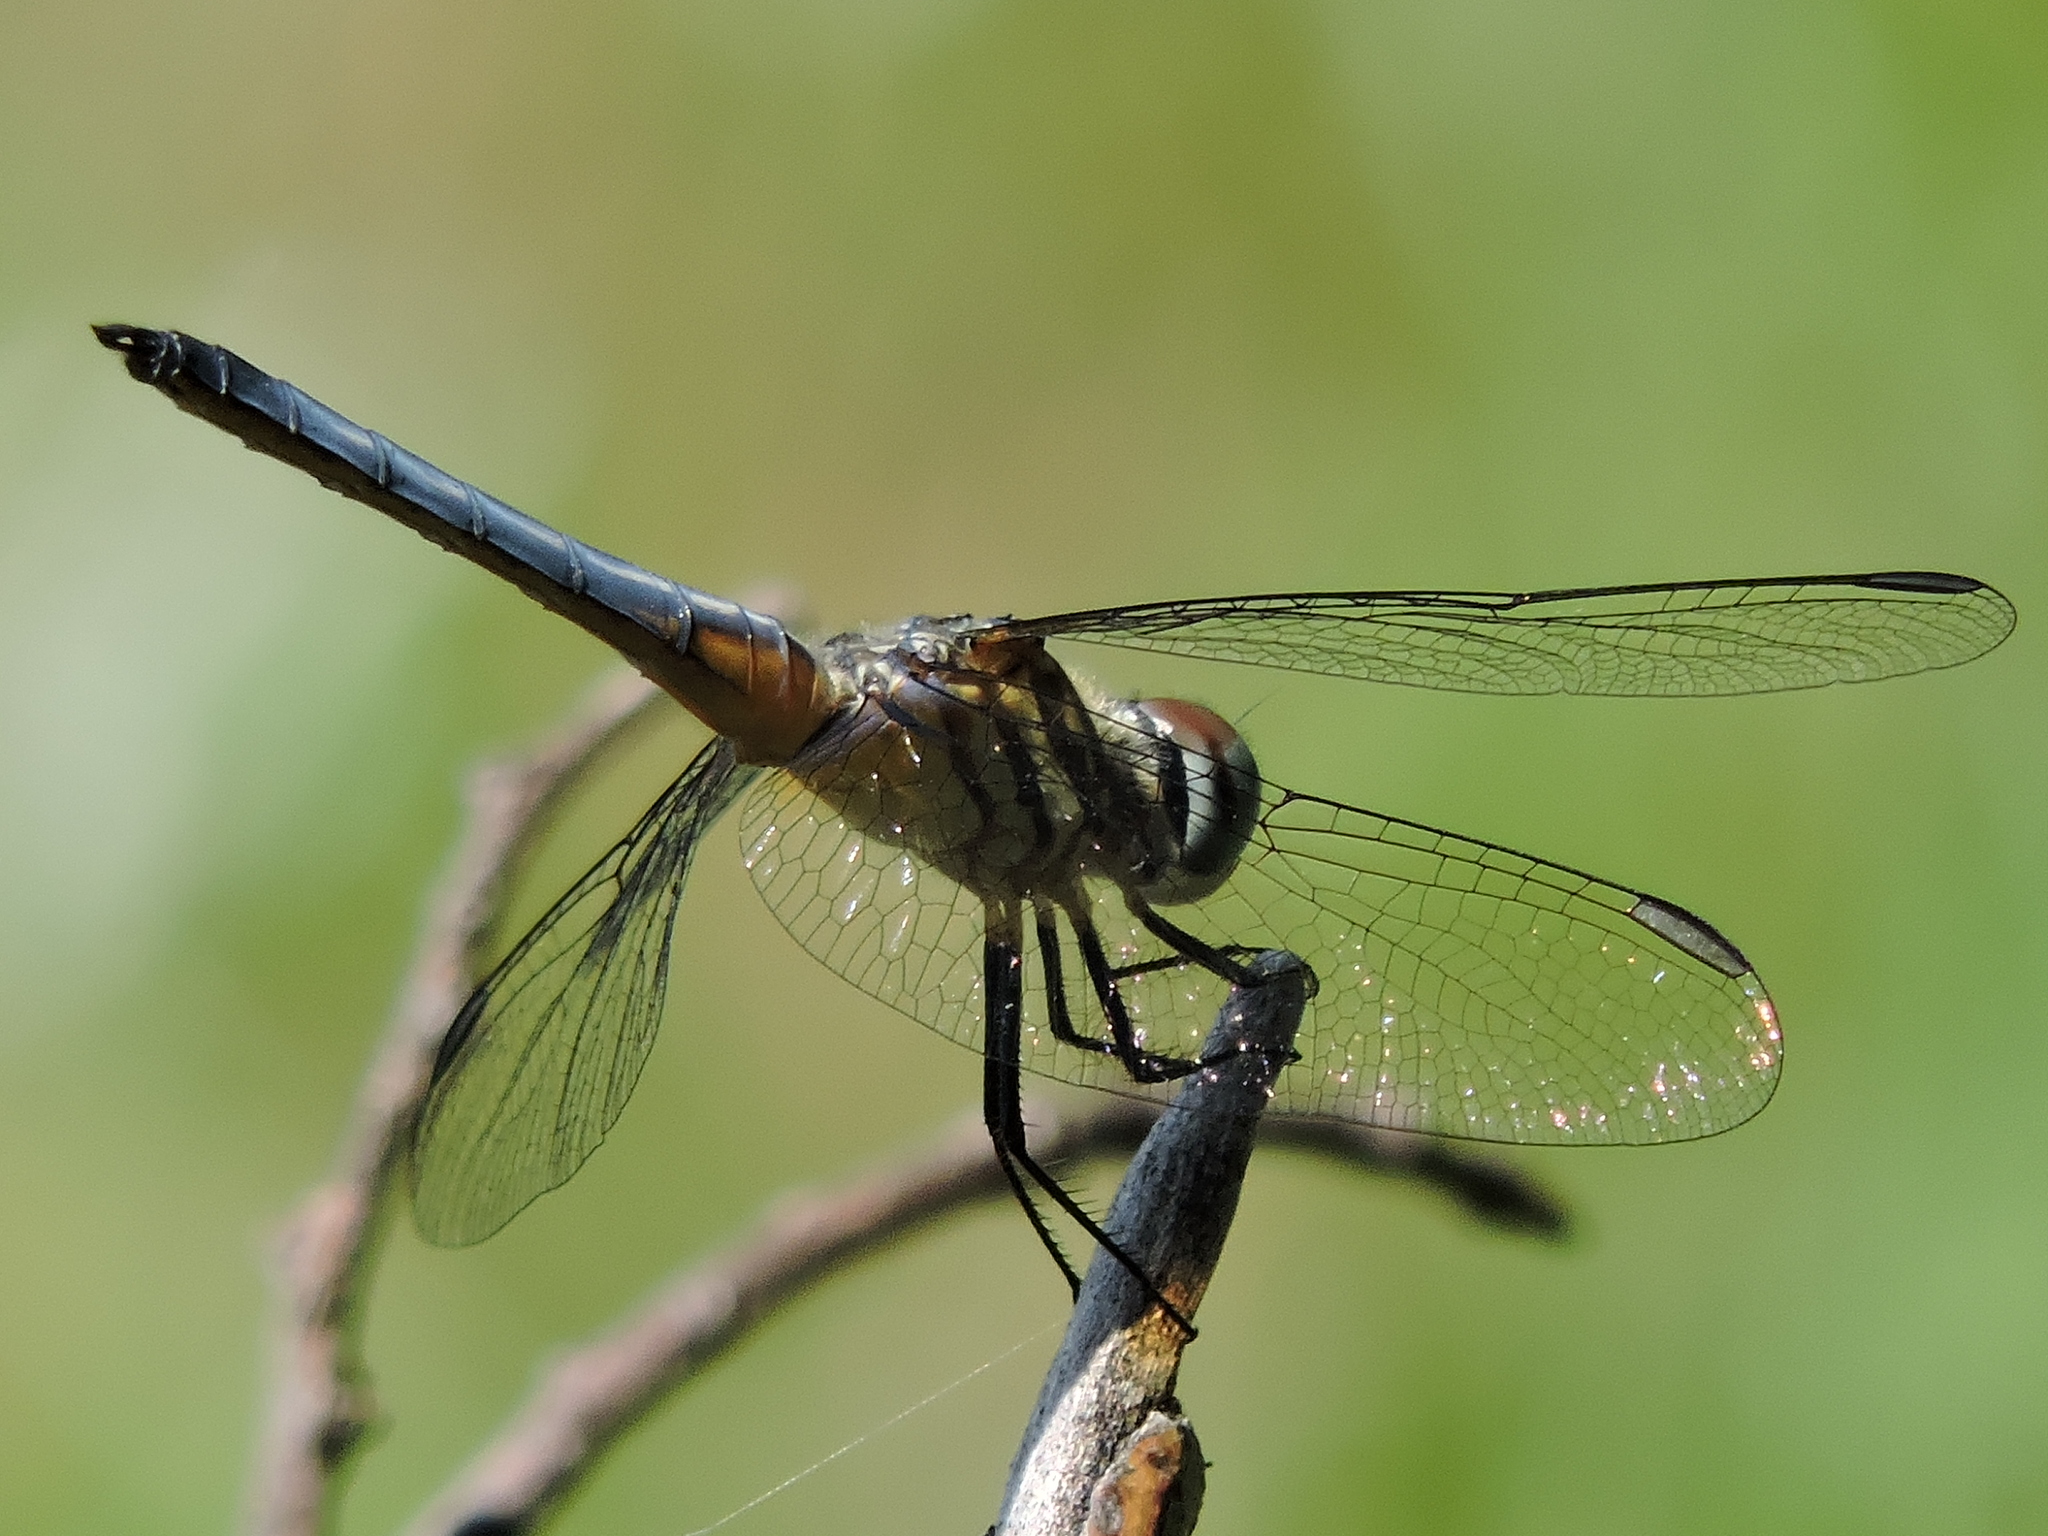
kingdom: Animalia
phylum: Arthropoda
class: Insecta
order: Odonata
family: Libellulidae
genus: Pachydiplax
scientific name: Pachydiplax longipennis
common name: Blue dasher
